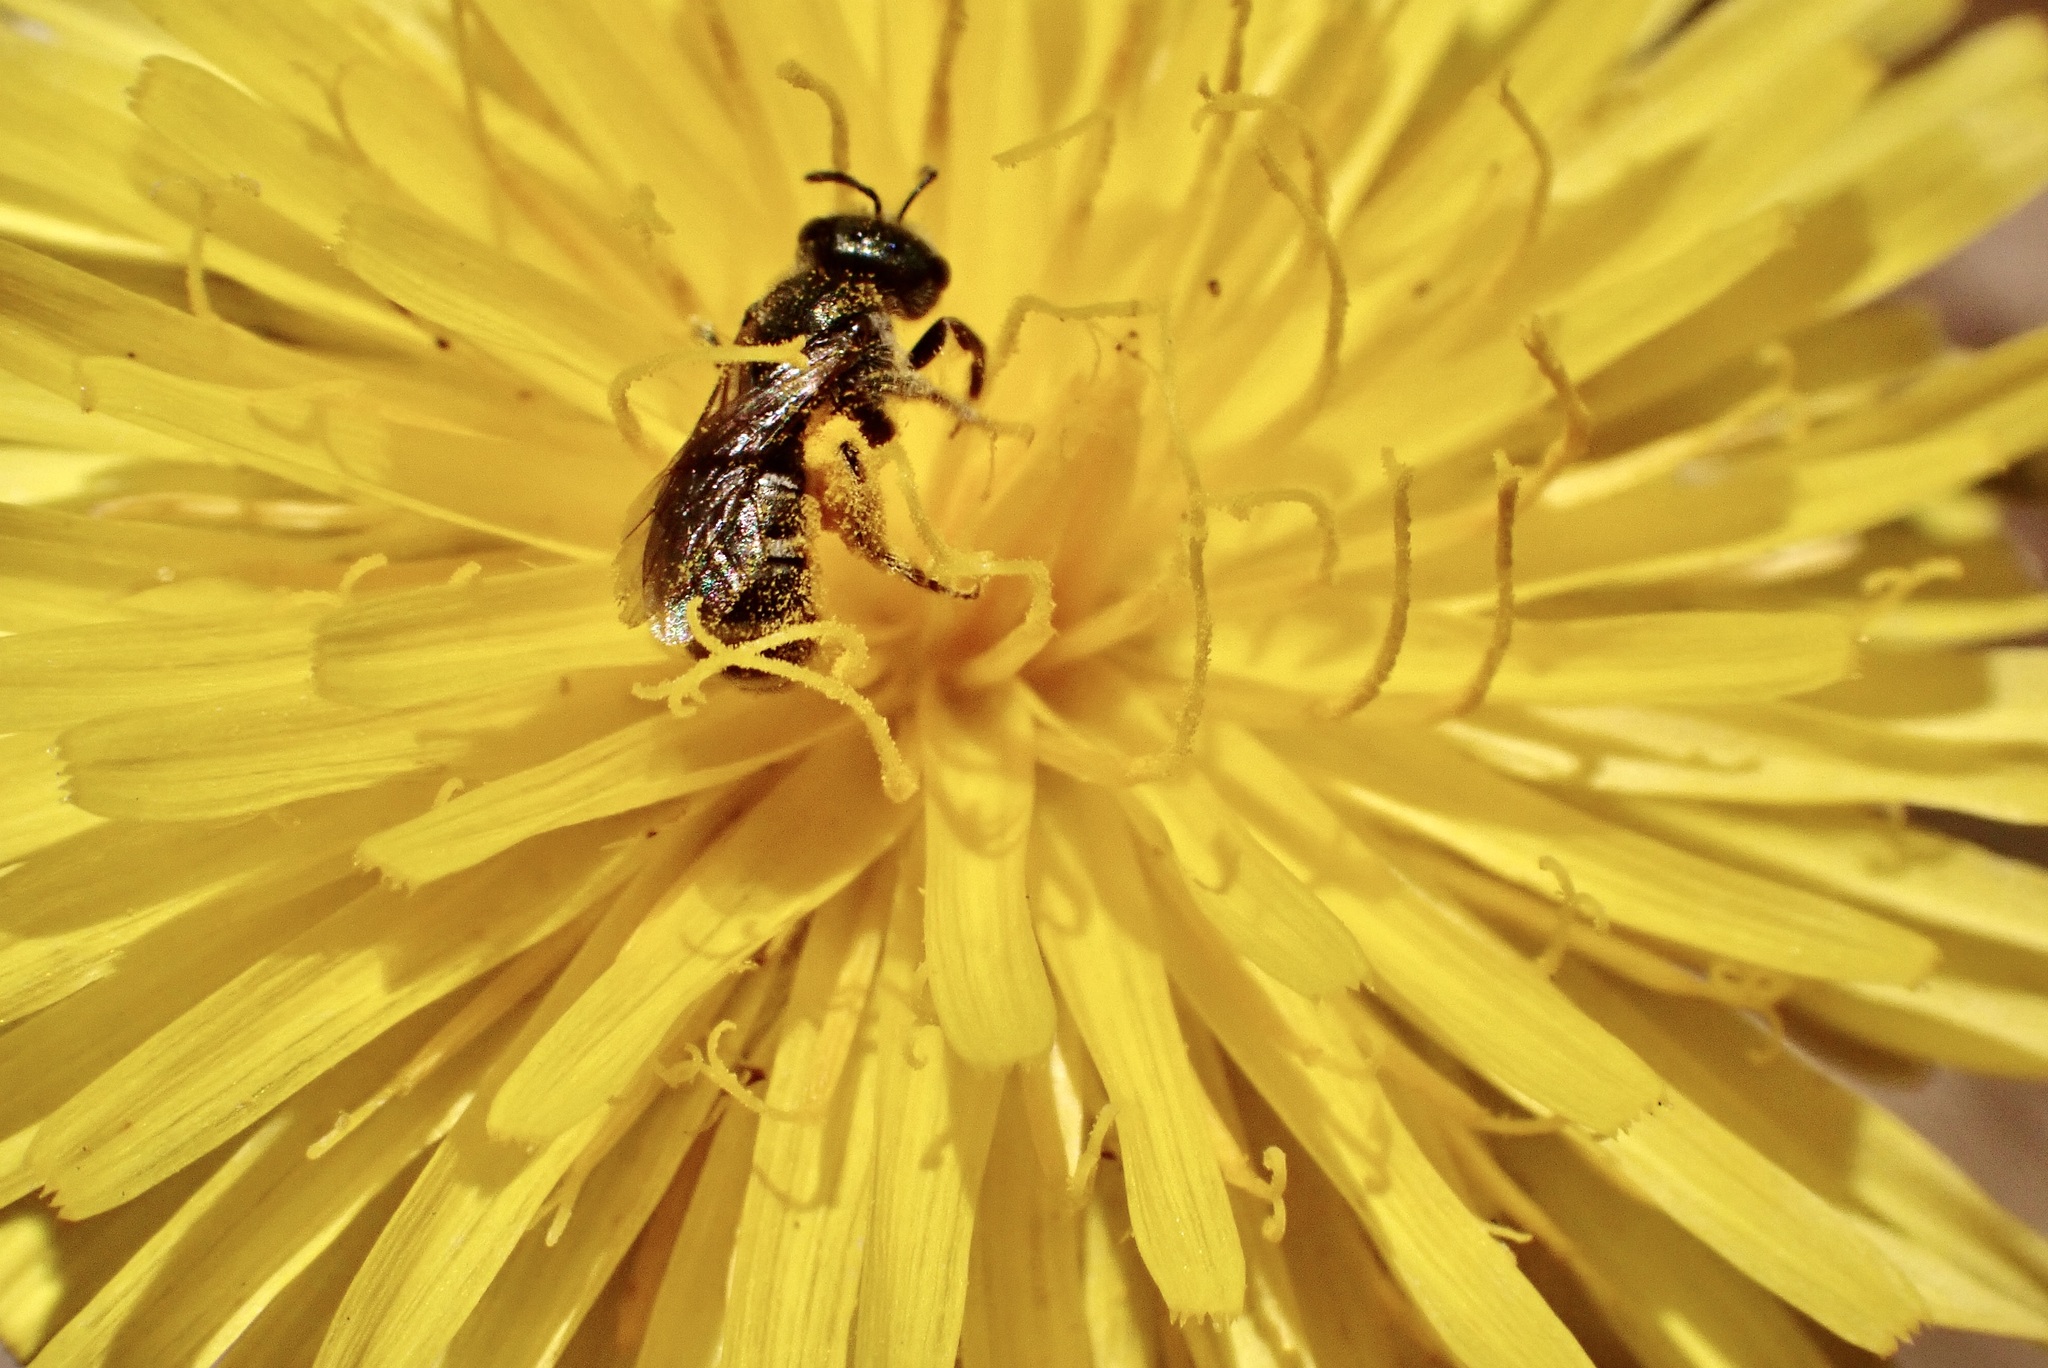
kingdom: Animalia
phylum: Arthropoda
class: Insecta
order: Hymenoptera
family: Halictidae
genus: Halictus
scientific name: Halictus tripartitus
